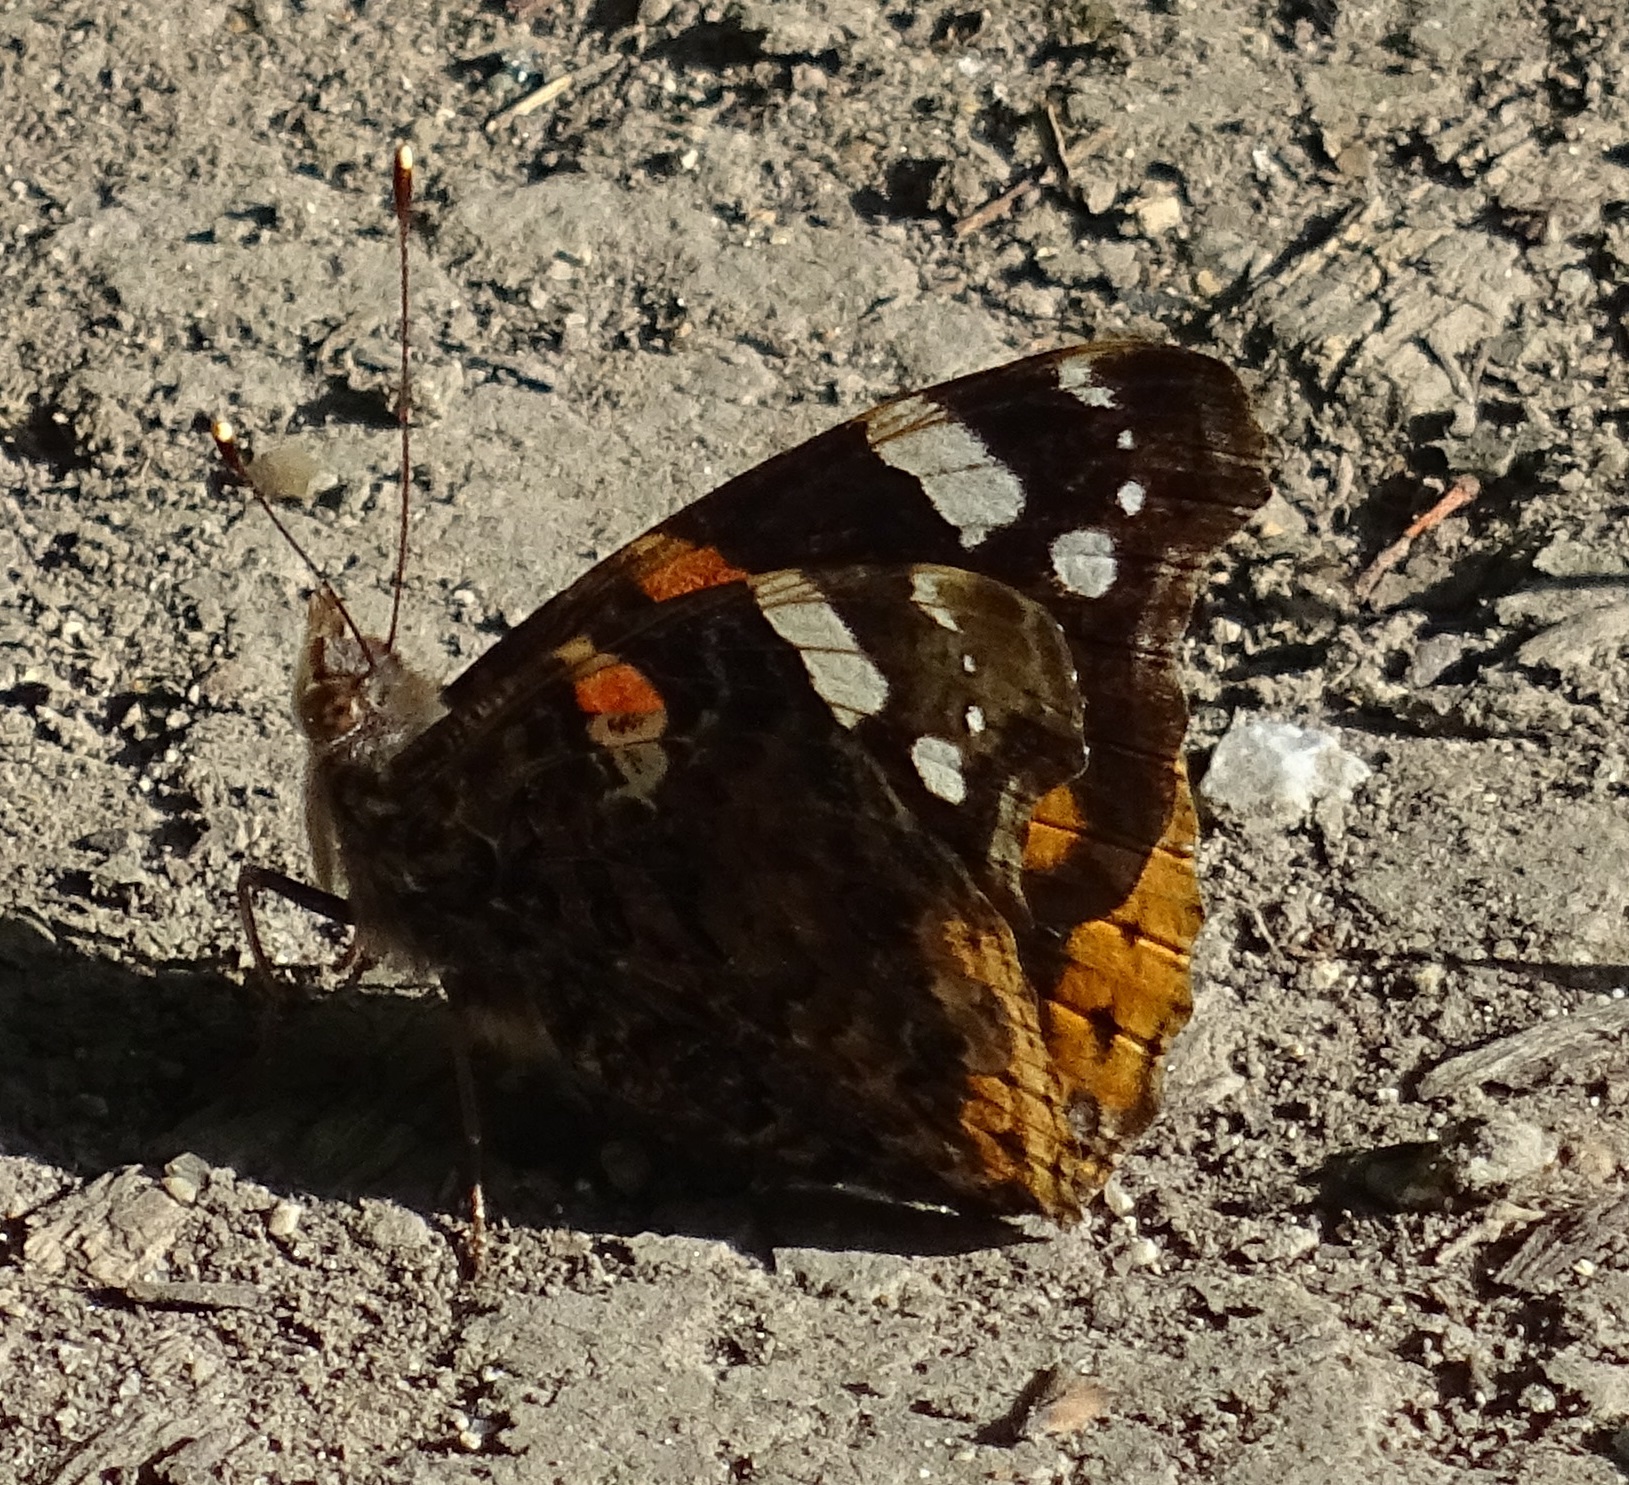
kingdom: Animalia
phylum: Arthropoda
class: Insecta
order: Lepidoptera
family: Nymphalidae
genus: Vanessa
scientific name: Vanessa atalanta
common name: Red admiral
